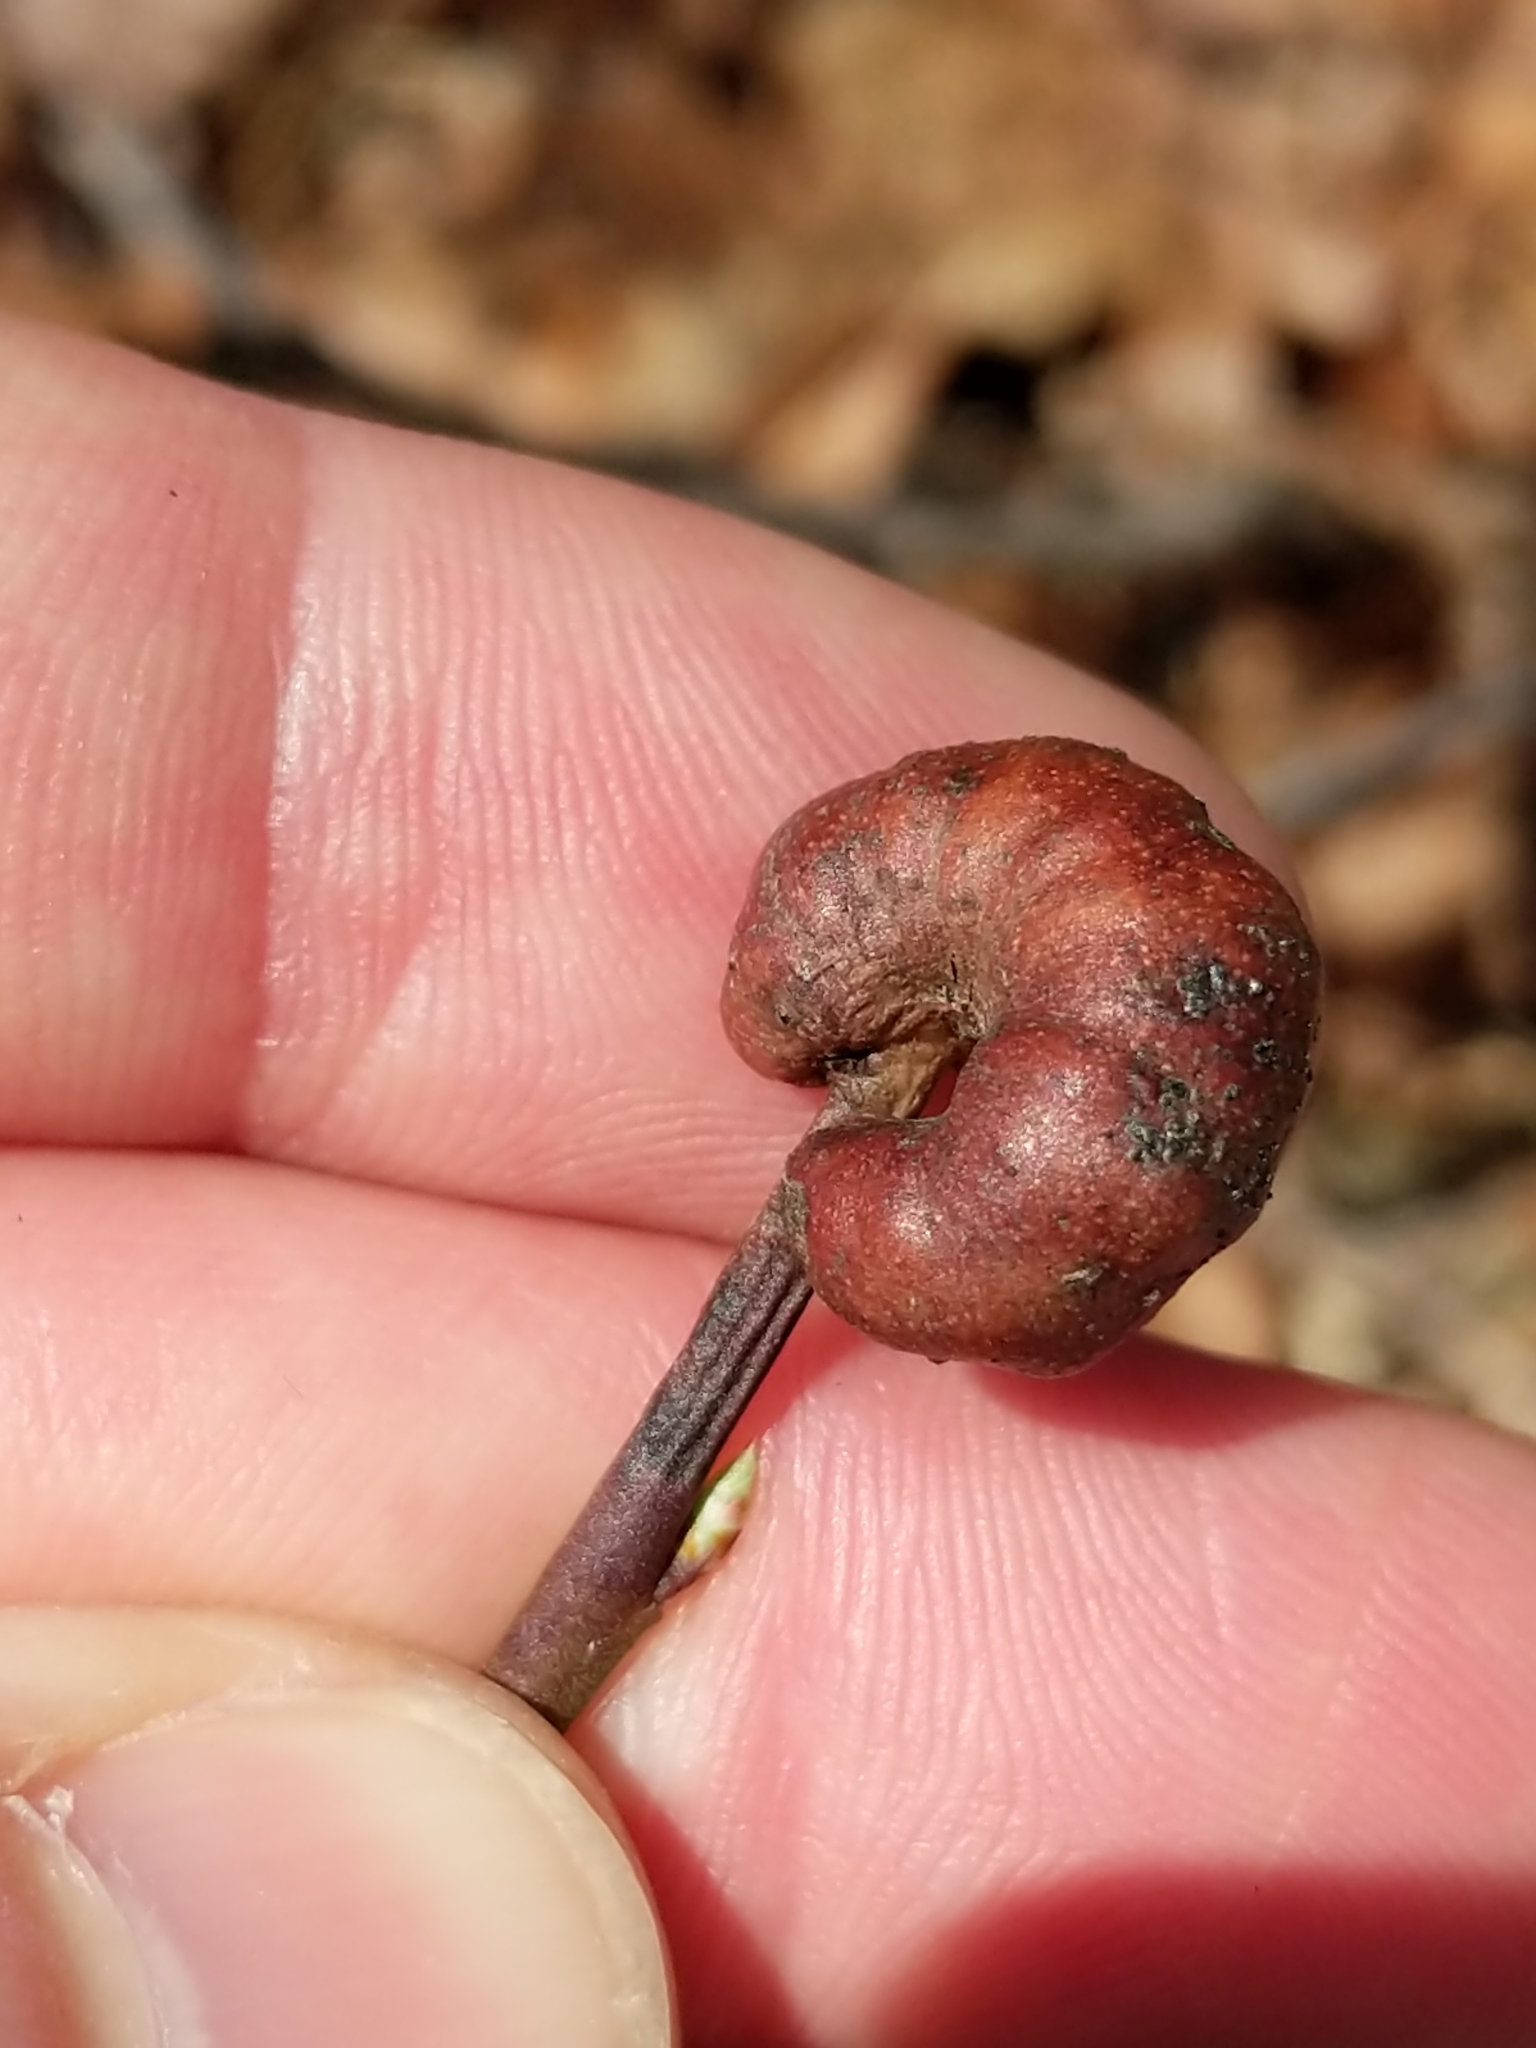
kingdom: Animalia
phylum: Arthropoda
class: Insecta
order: Hymenoptera
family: Pteromalidae
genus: Hemadas
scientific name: Hemadas nubilipennis
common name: Blueberry stem gall wasp
